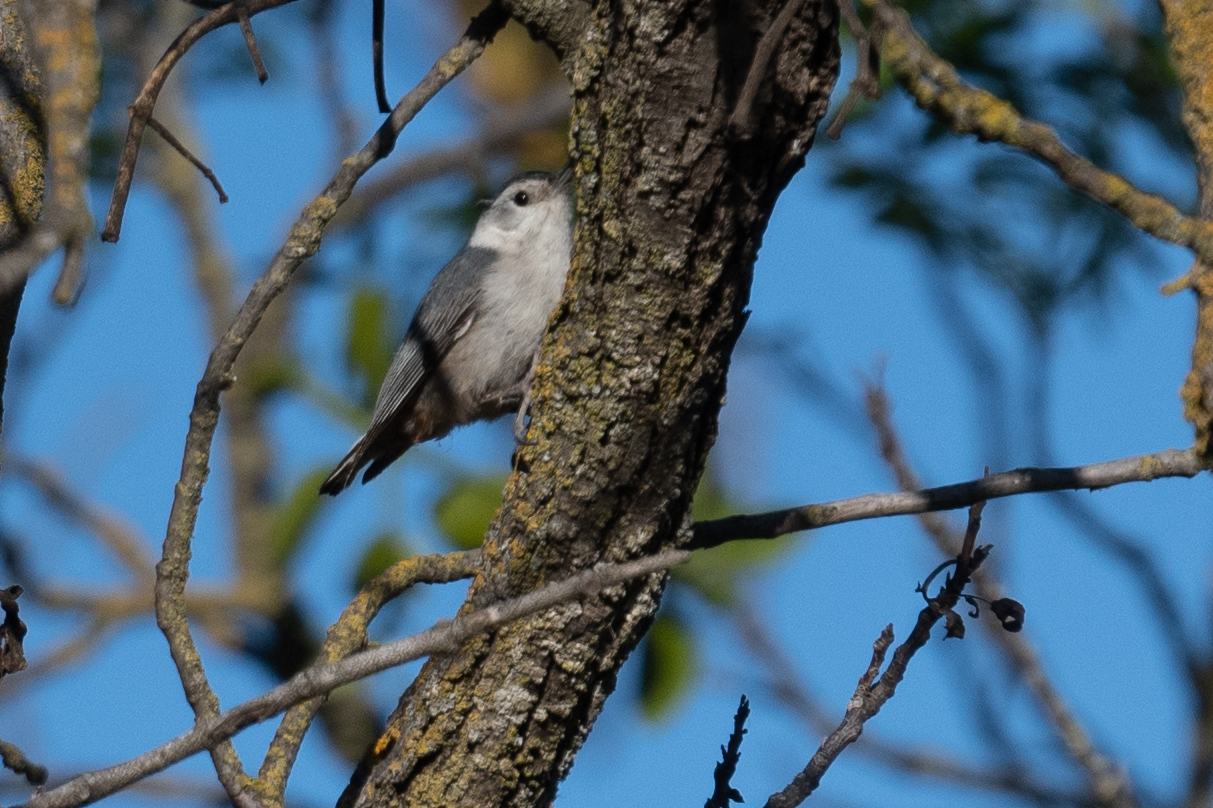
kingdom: Animalia
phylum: Chordata
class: Aves
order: Passeriformes
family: Sittidae
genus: Sitta
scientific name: Sitta carolinensis
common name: White-breasted nuthatch
